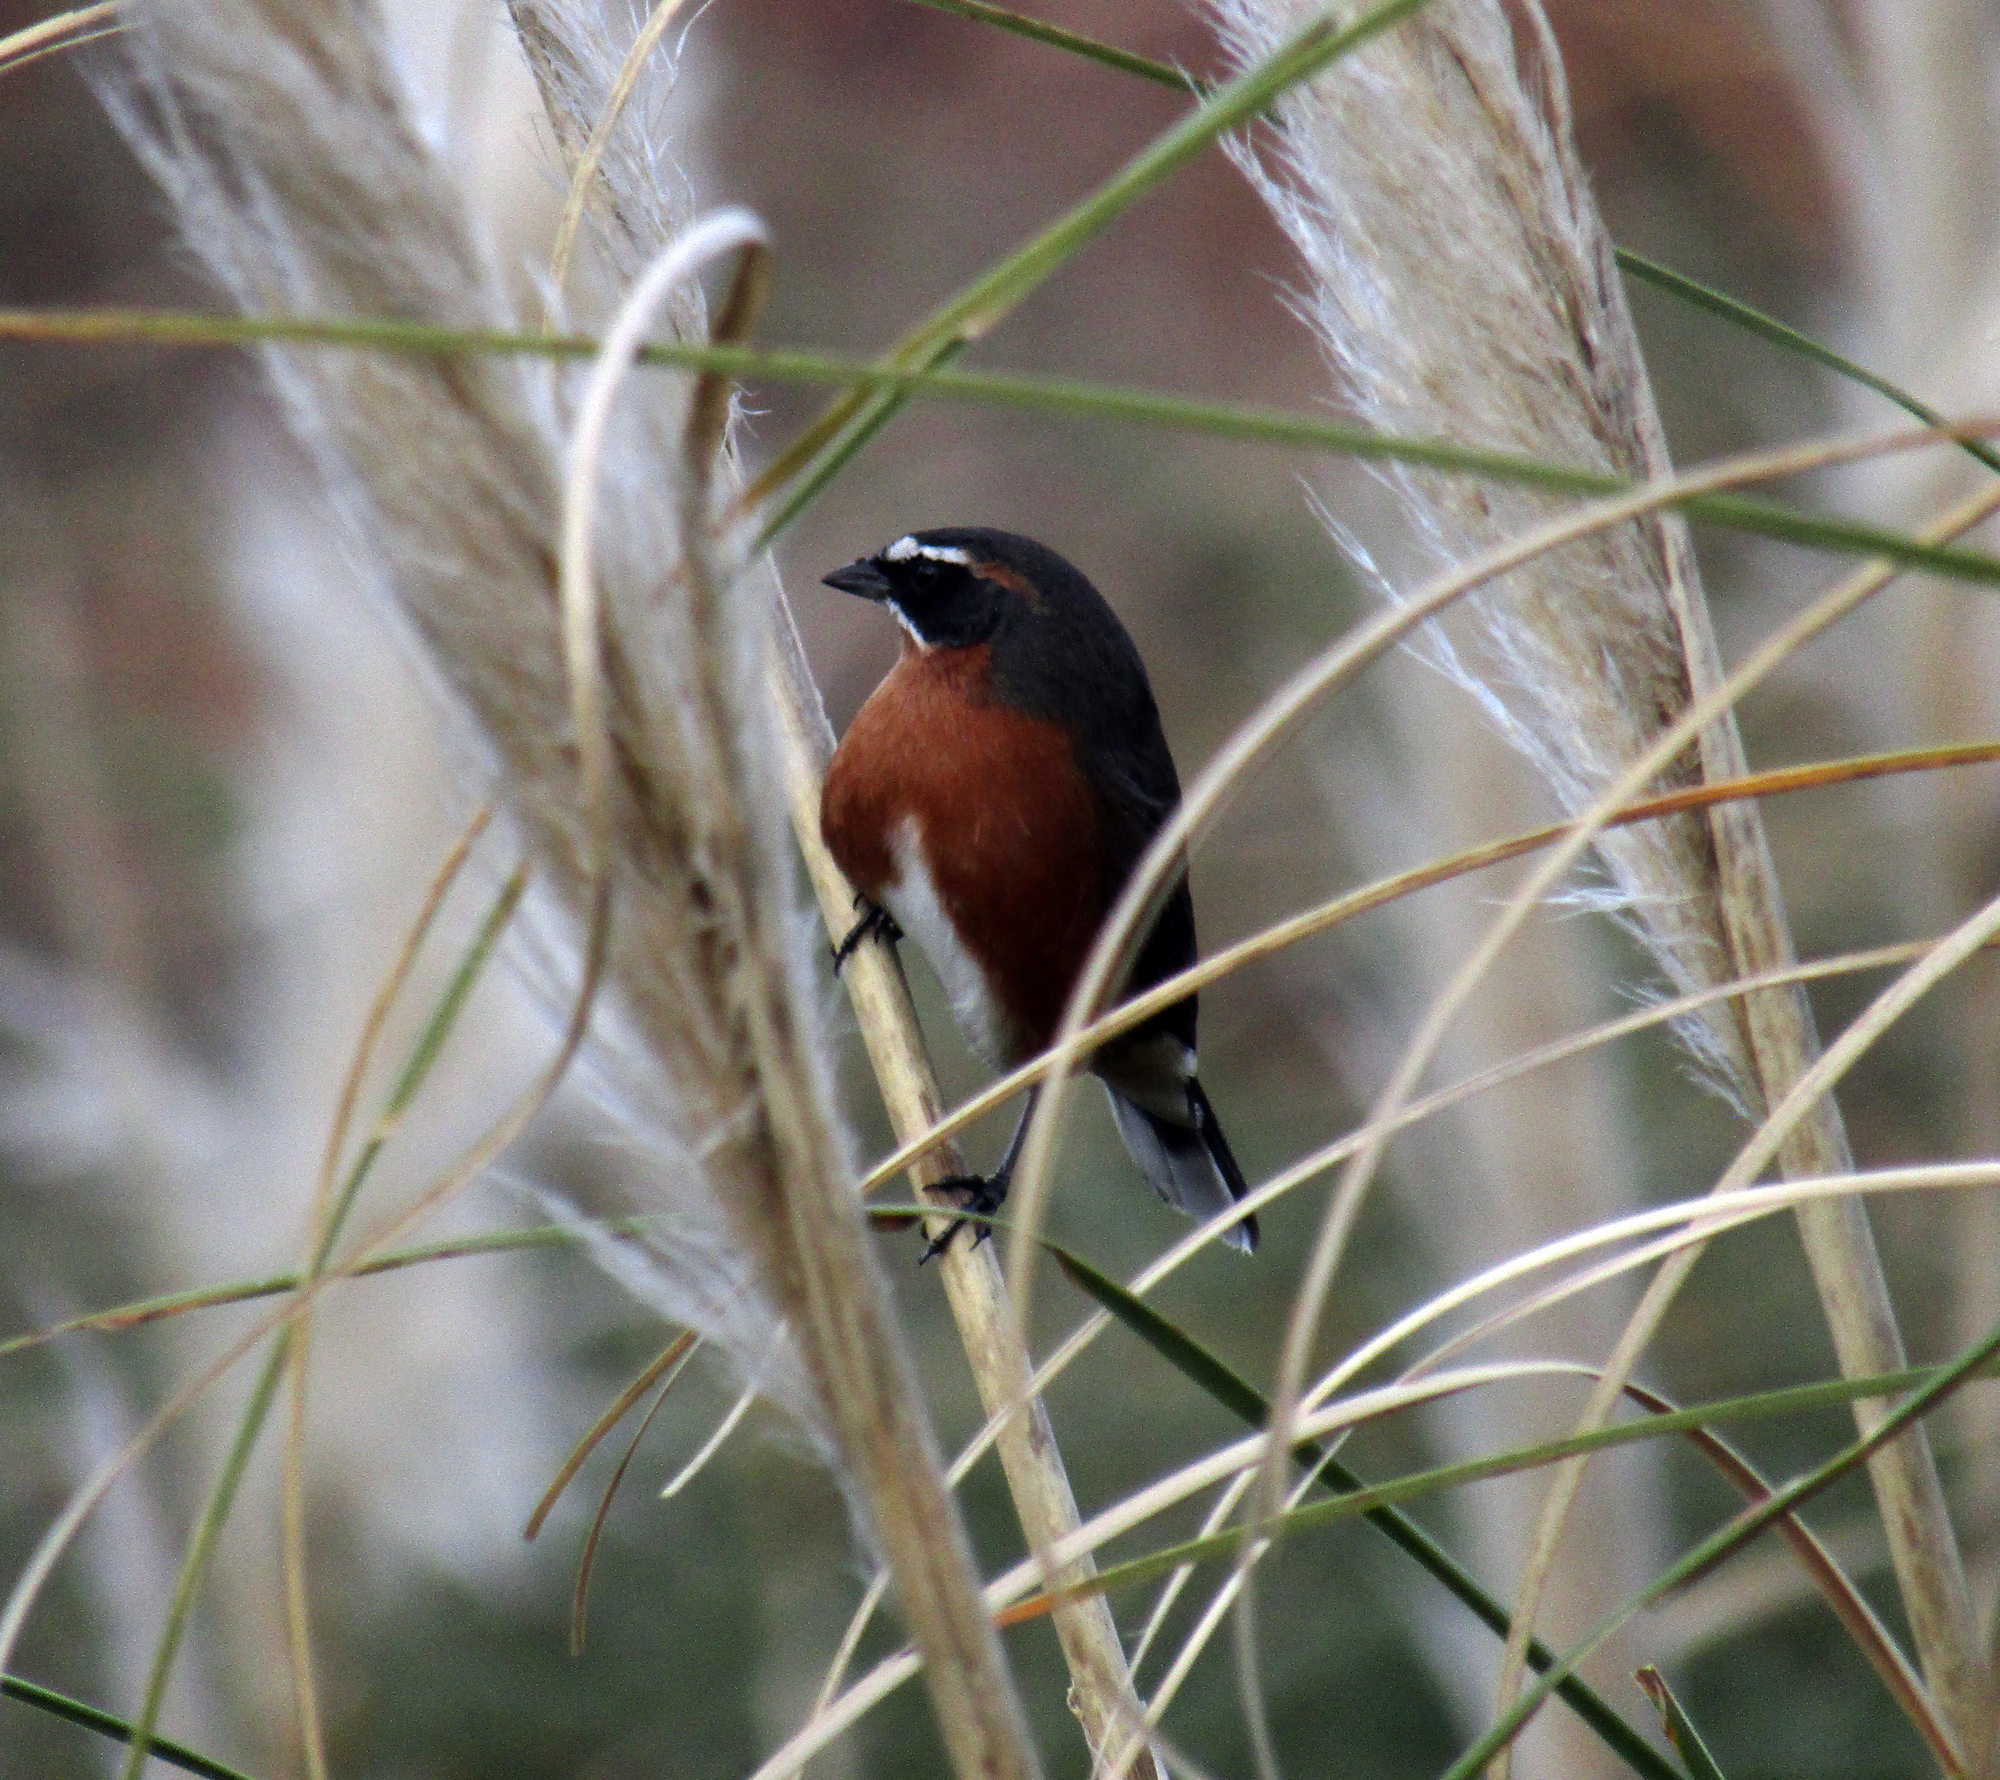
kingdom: Animalia
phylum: Chordata
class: Aves
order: Passeriformes
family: Thraupidae
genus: Poospiza
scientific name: Poospiza nigrorufa
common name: Black-and-rufous warbling finch
